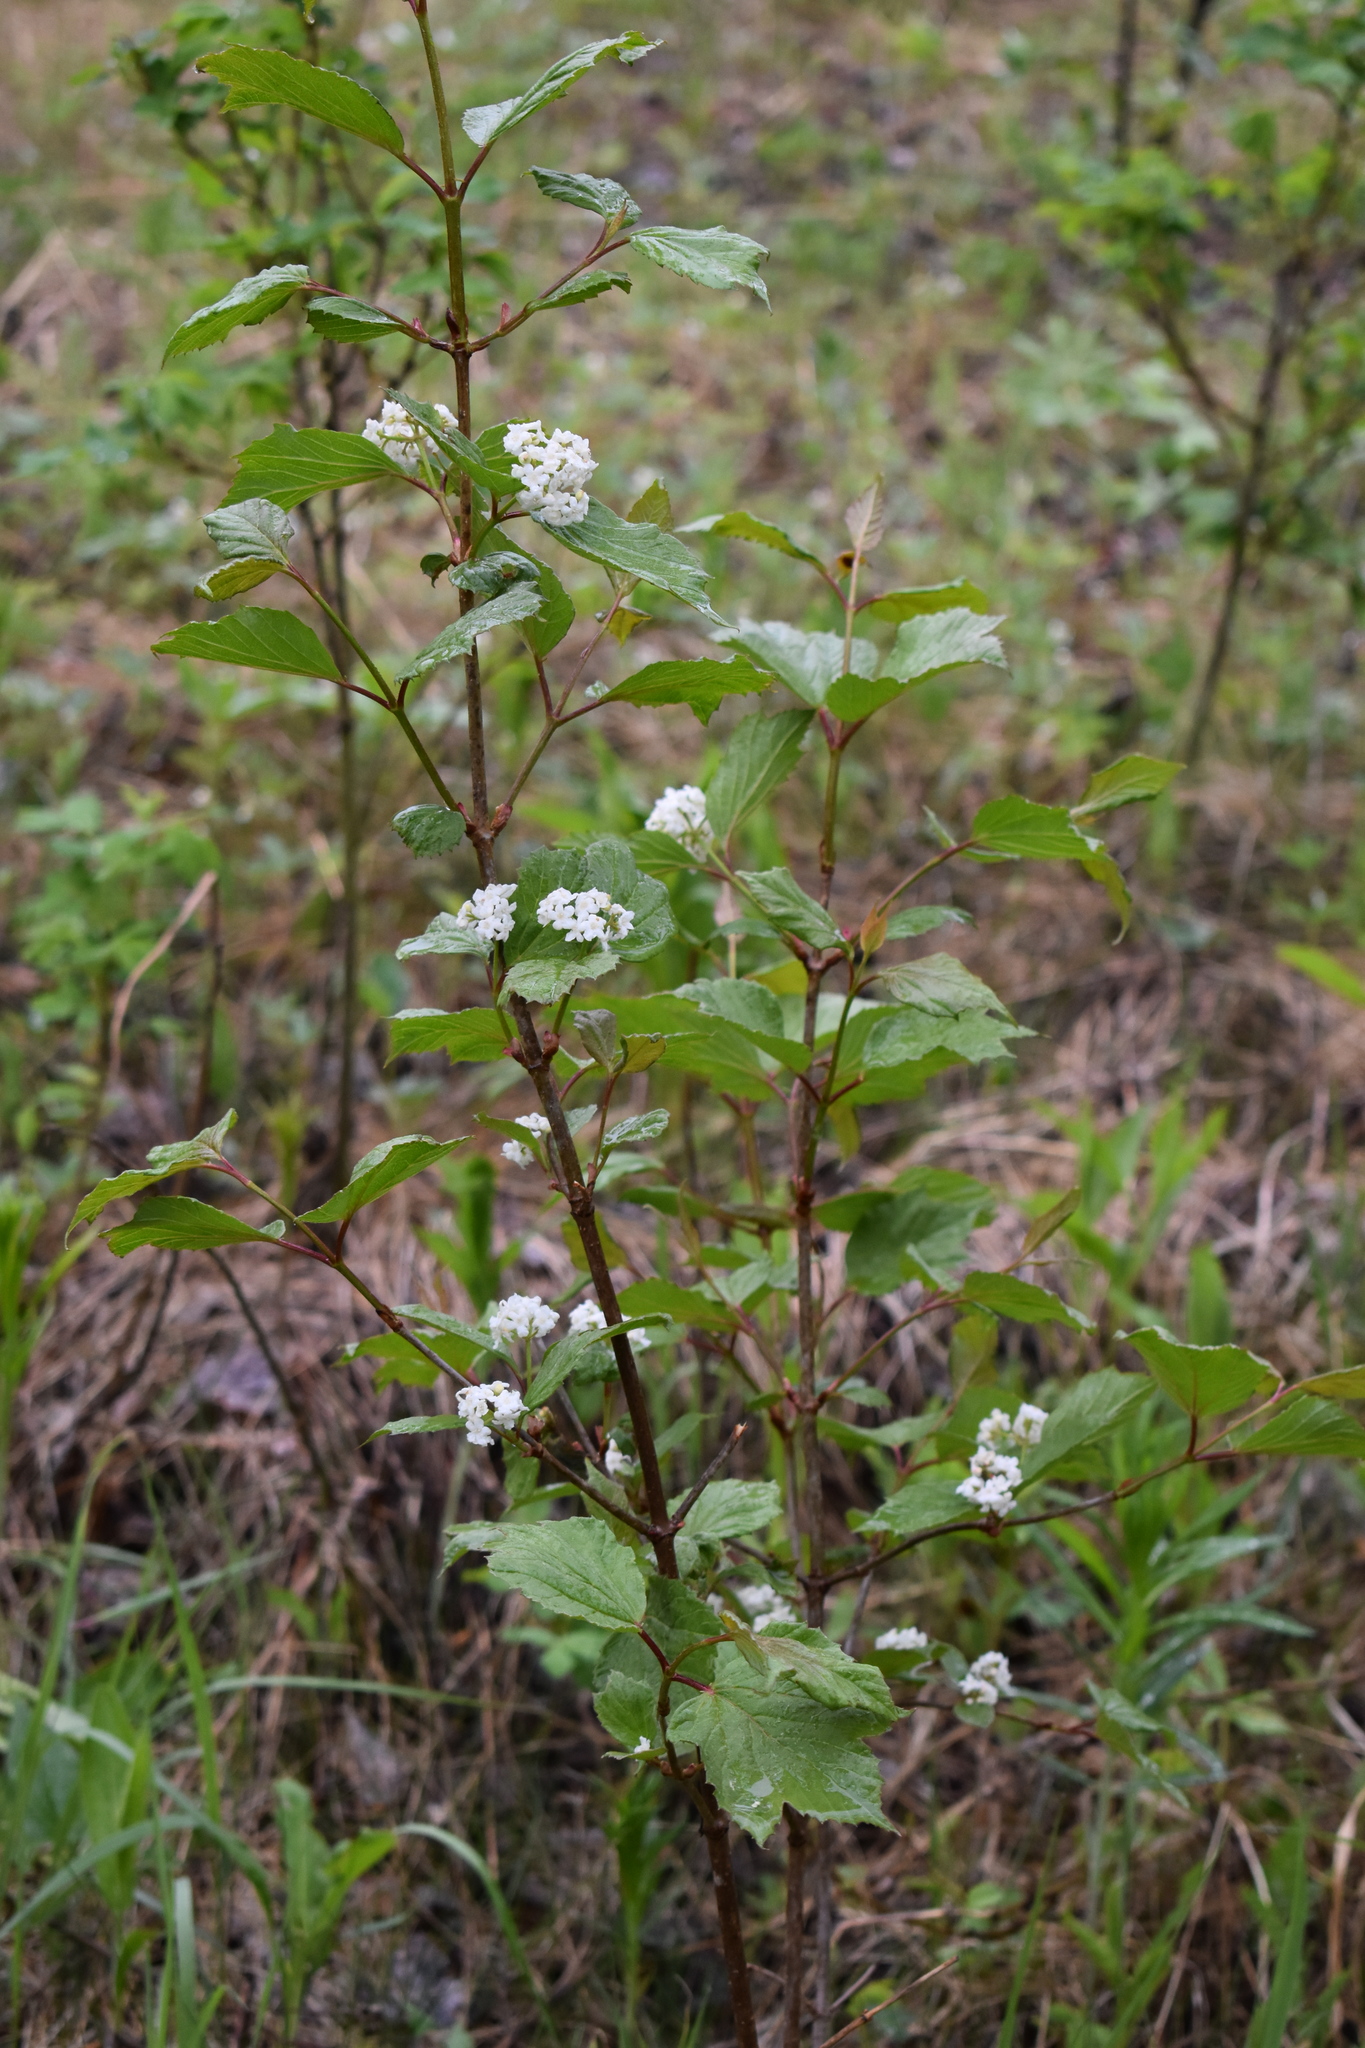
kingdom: Plantae
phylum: Tracheophyta
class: Magnoliopsida
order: Dipsacales
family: Viburnaceae
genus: Viburnum
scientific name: Viburnum edule
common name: Mooseberry
